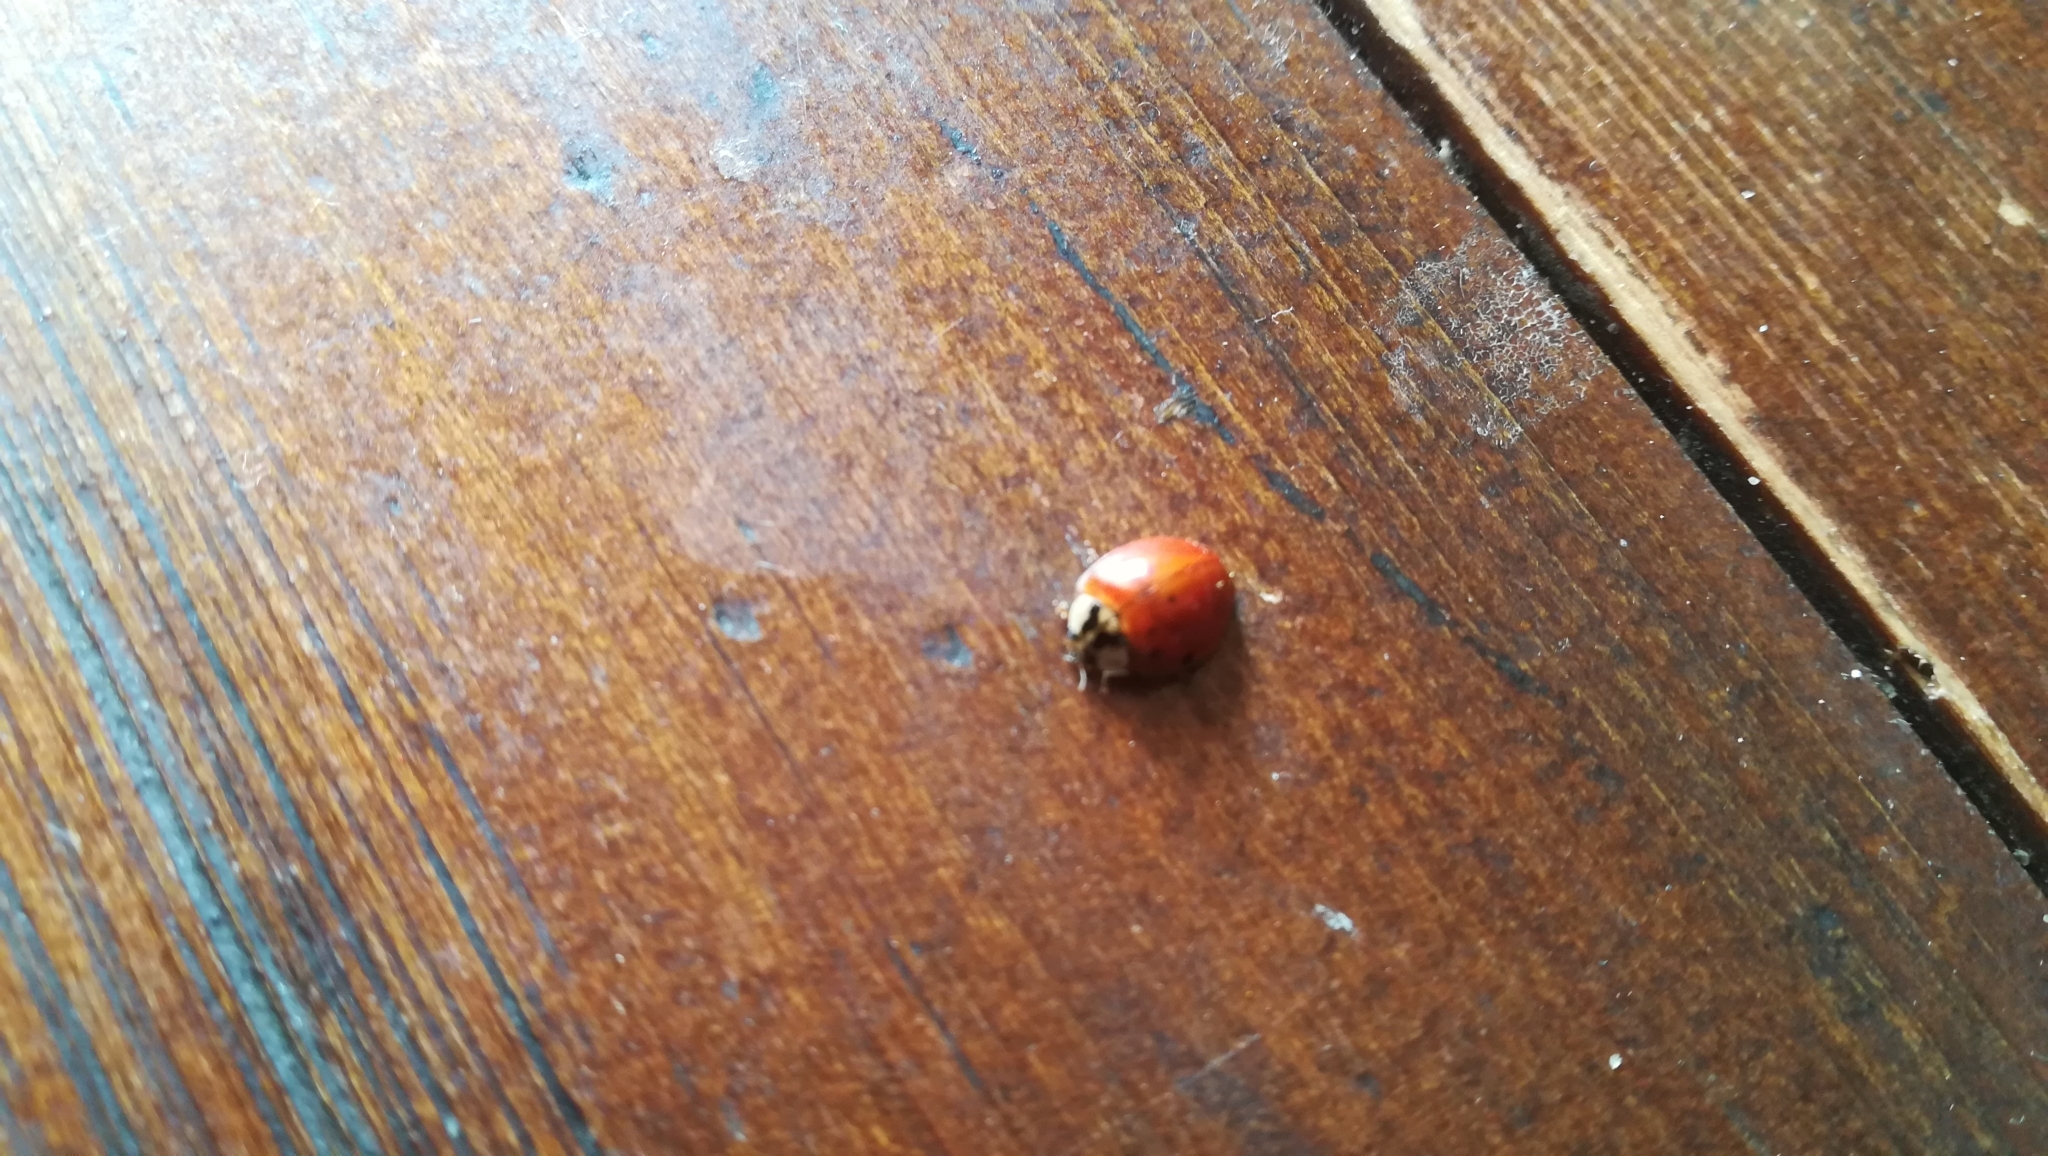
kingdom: Animalia
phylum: Arthropoda
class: Insecta
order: Coleoptera
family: Coccinellidae
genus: Harmonia
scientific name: Harmonia axyridis
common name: Harlequin ladybird
